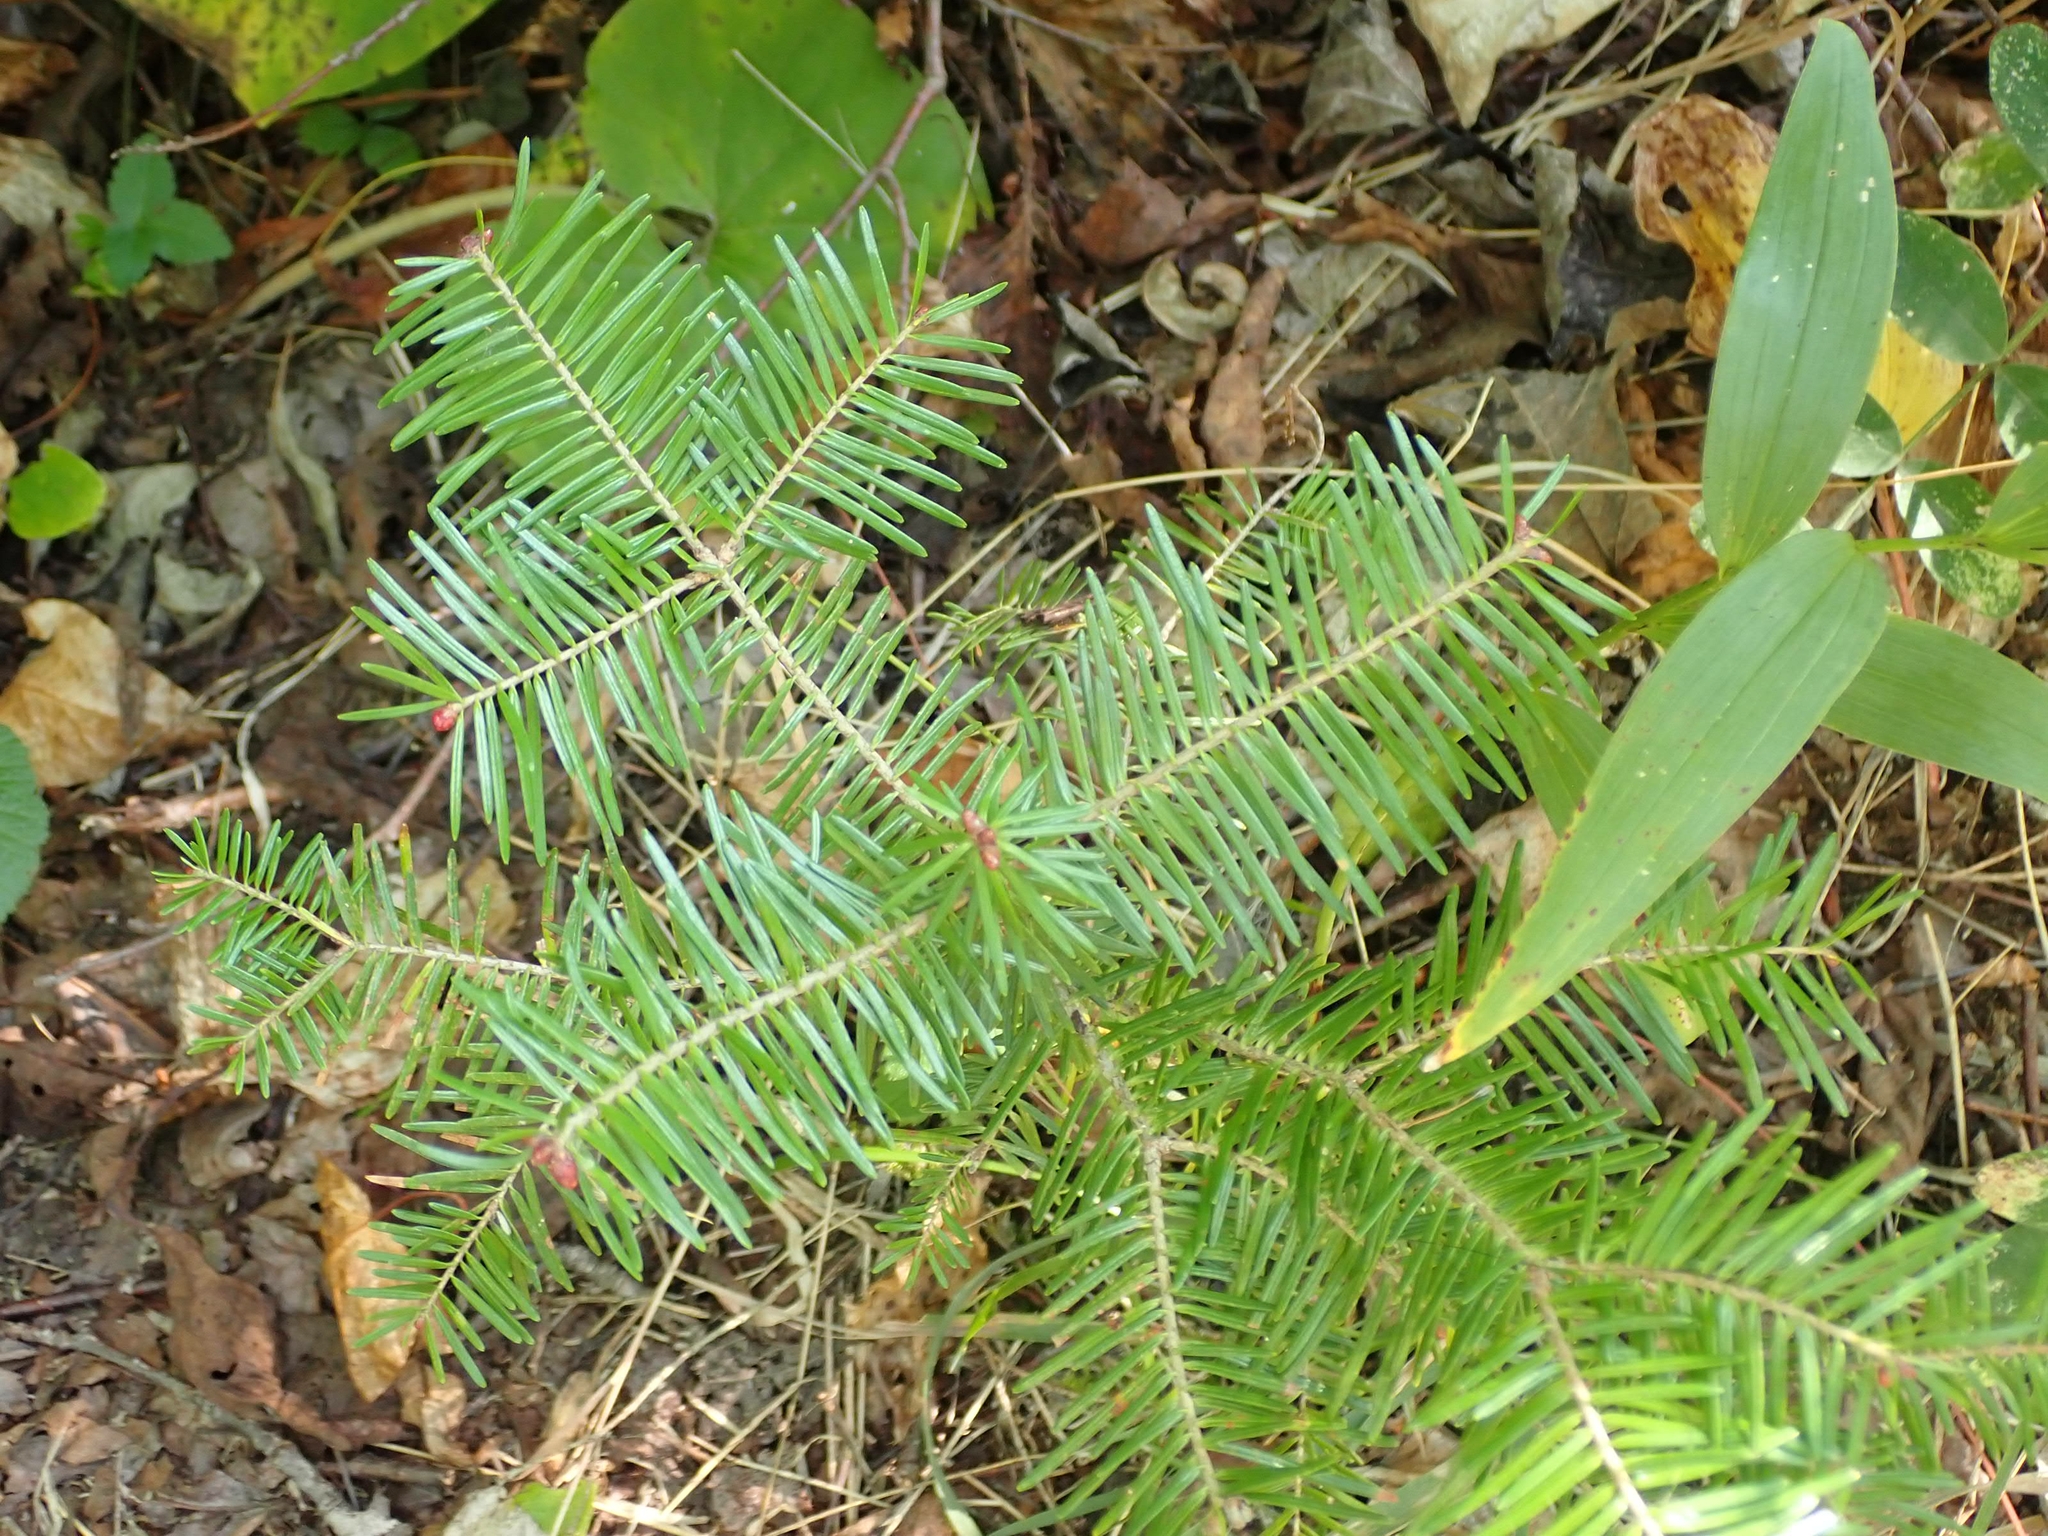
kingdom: Plantae
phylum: Tracheophyta
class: Pinopsida
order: Pinales
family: Pinaceae
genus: Abies
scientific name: Abies balsamea
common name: Balsam fir
